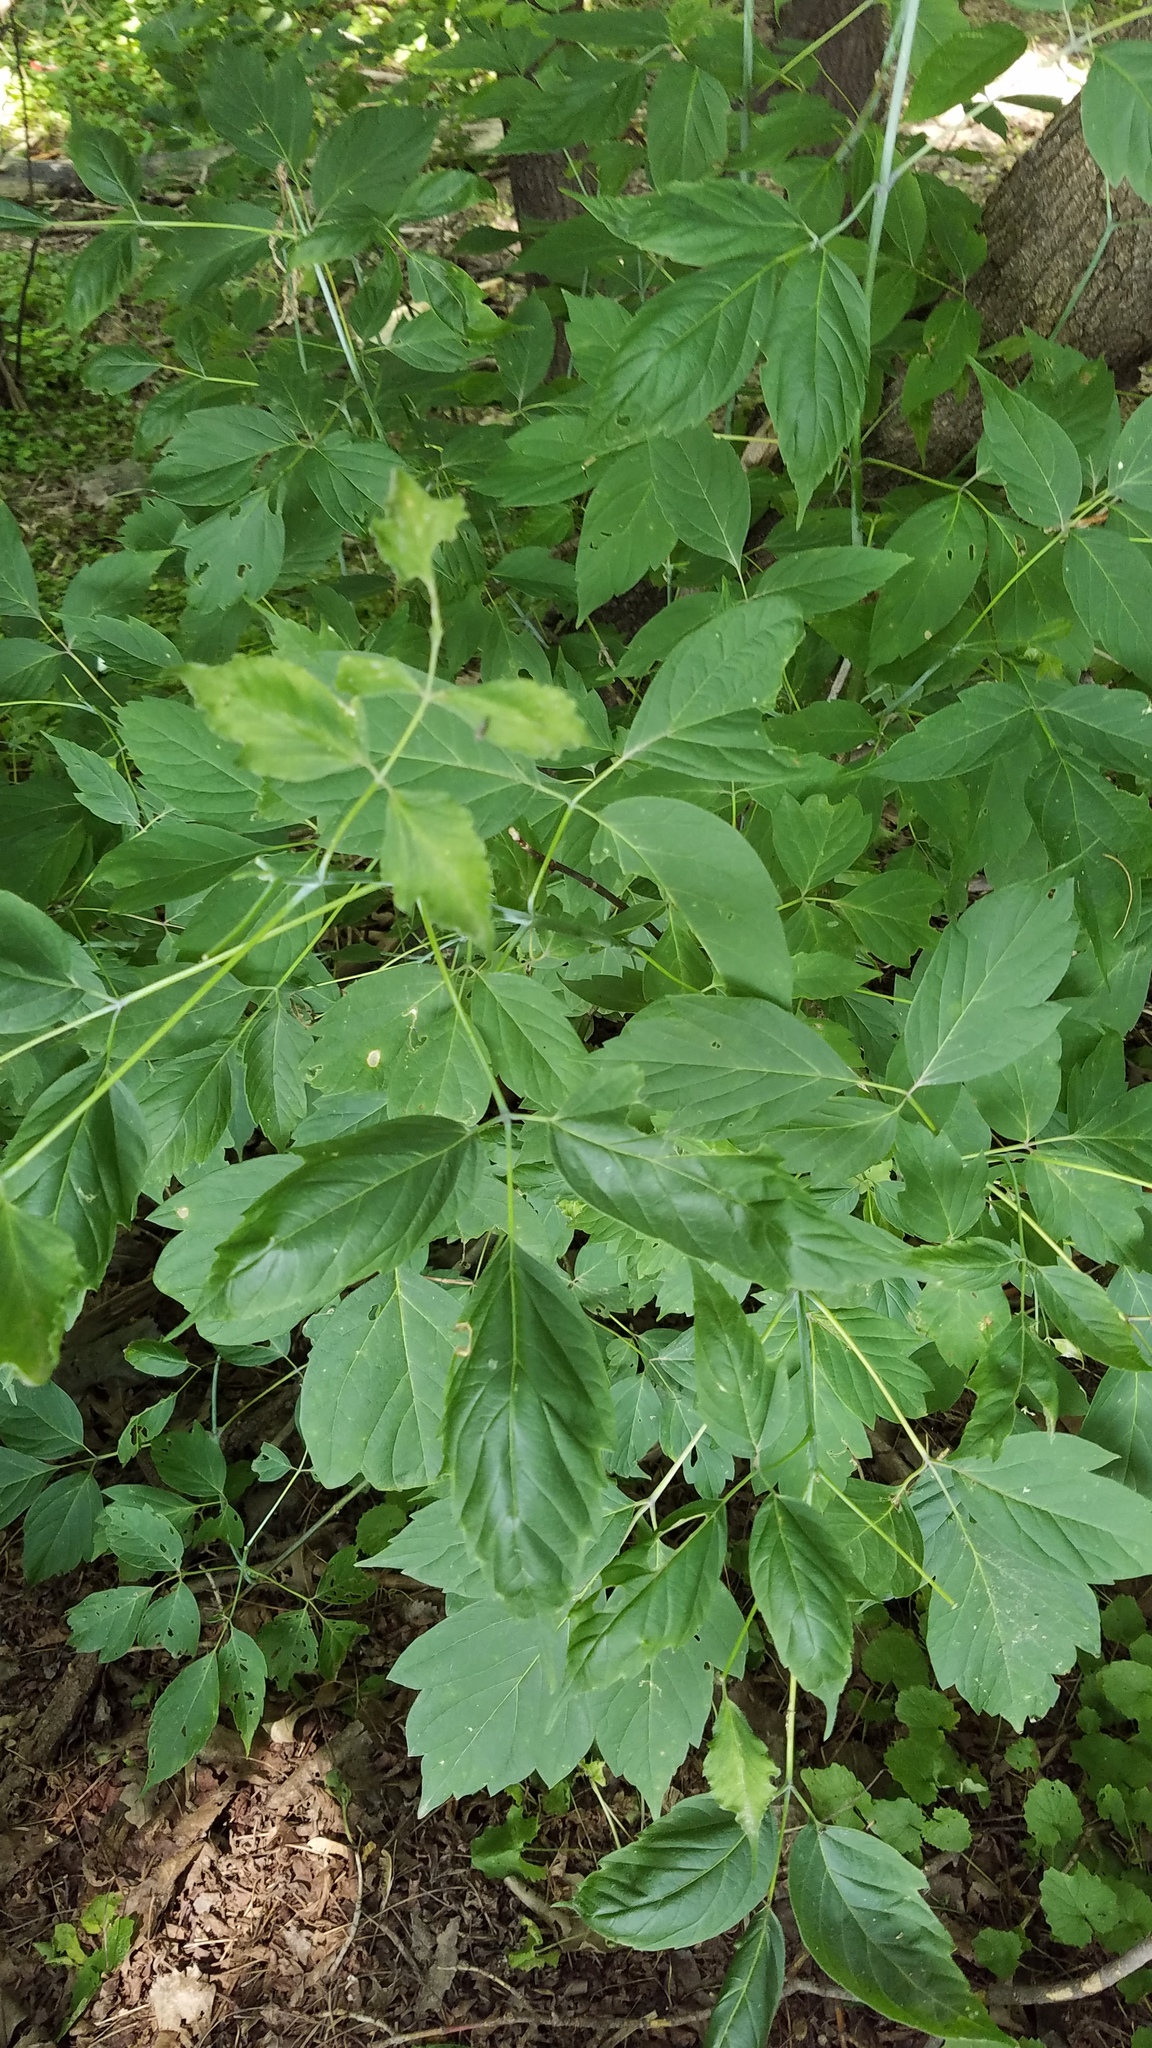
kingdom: Plantae
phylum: Tracheophyta
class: Magnoliopsida
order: Sapindales
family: Sapindaceae
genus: Acer
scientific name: Acer negundo
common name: Ashleaf maple
